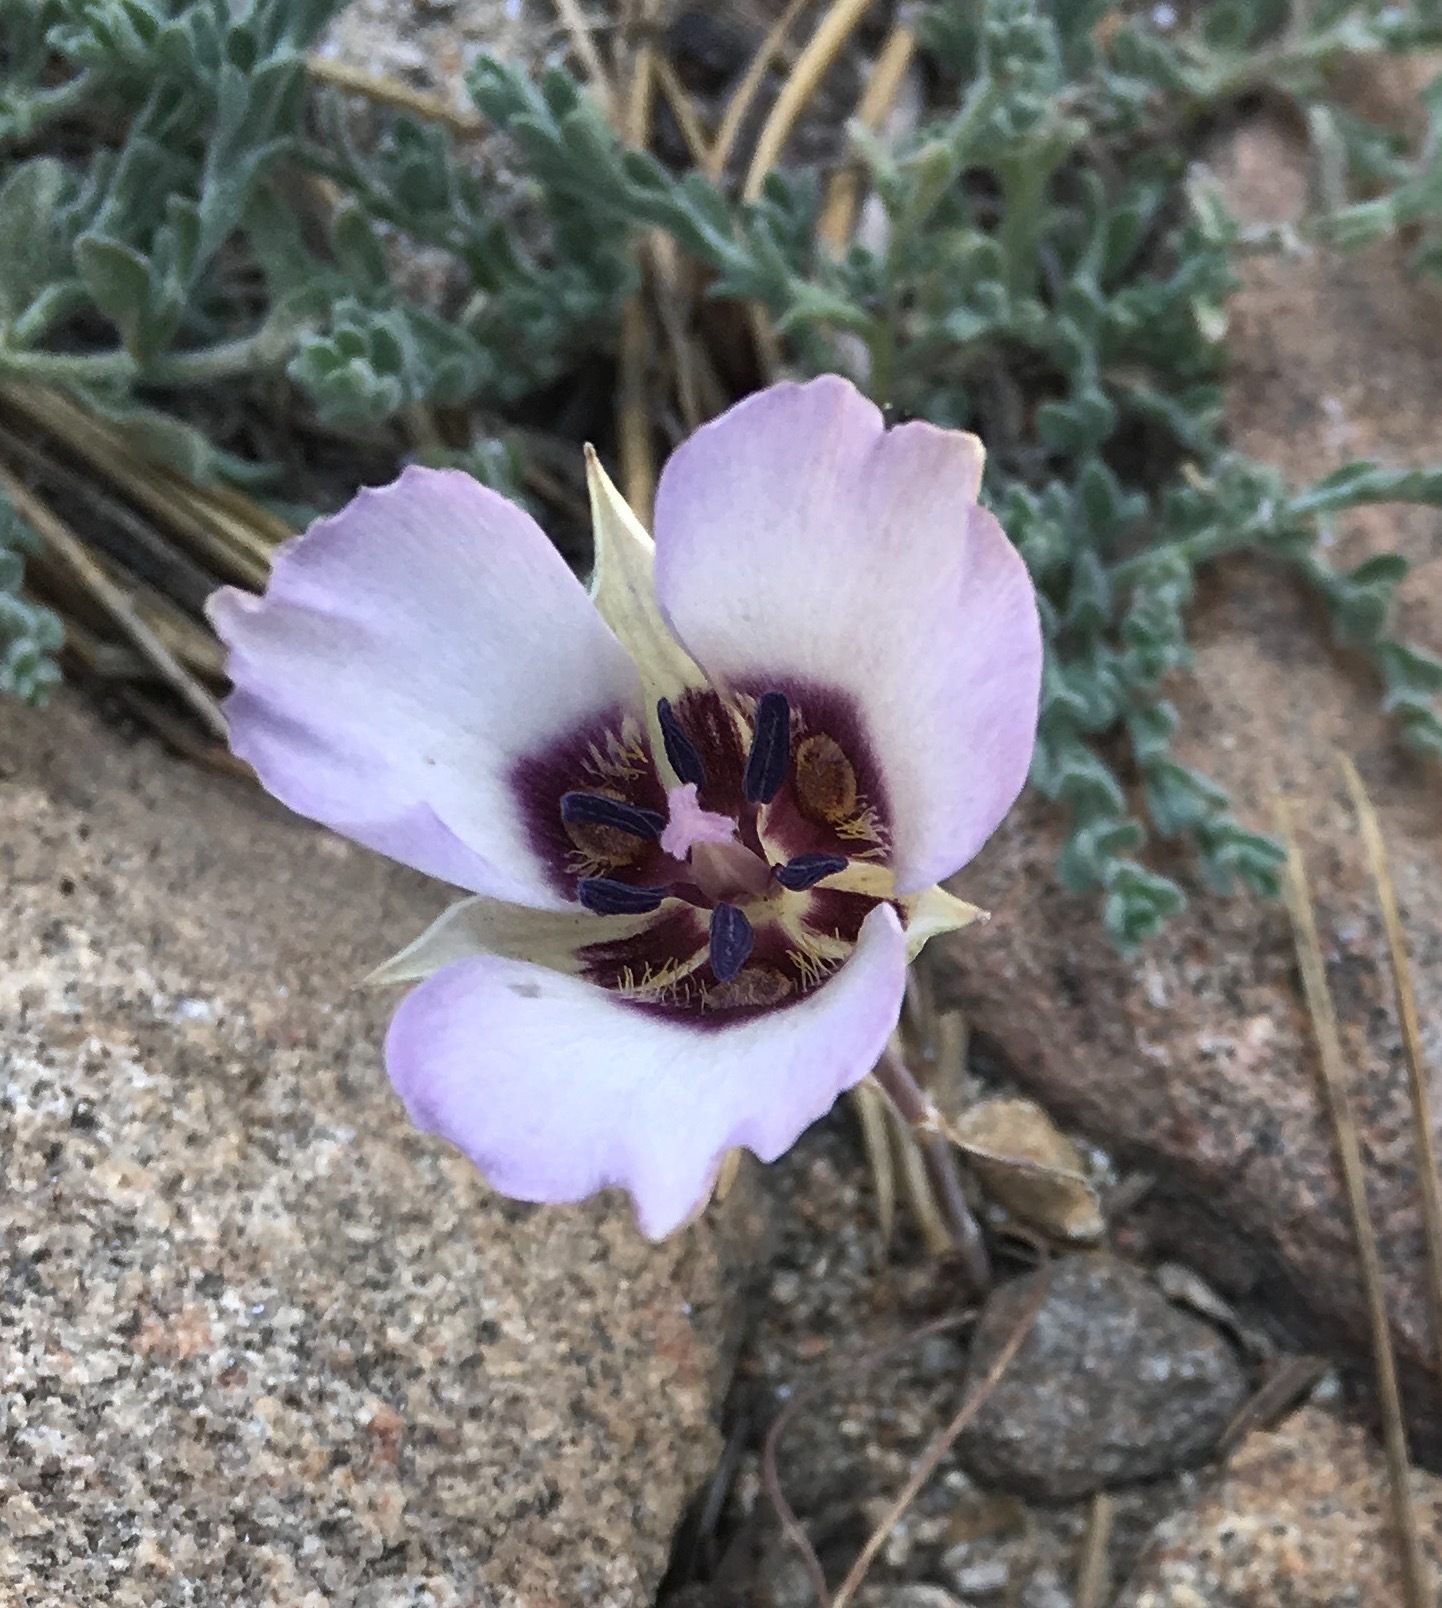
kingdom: Plantae
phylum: Tracheophyta
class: Liliopsida
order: Liliales
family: Liliaceae
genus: Calochortus
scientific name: Calochortus invenustus
